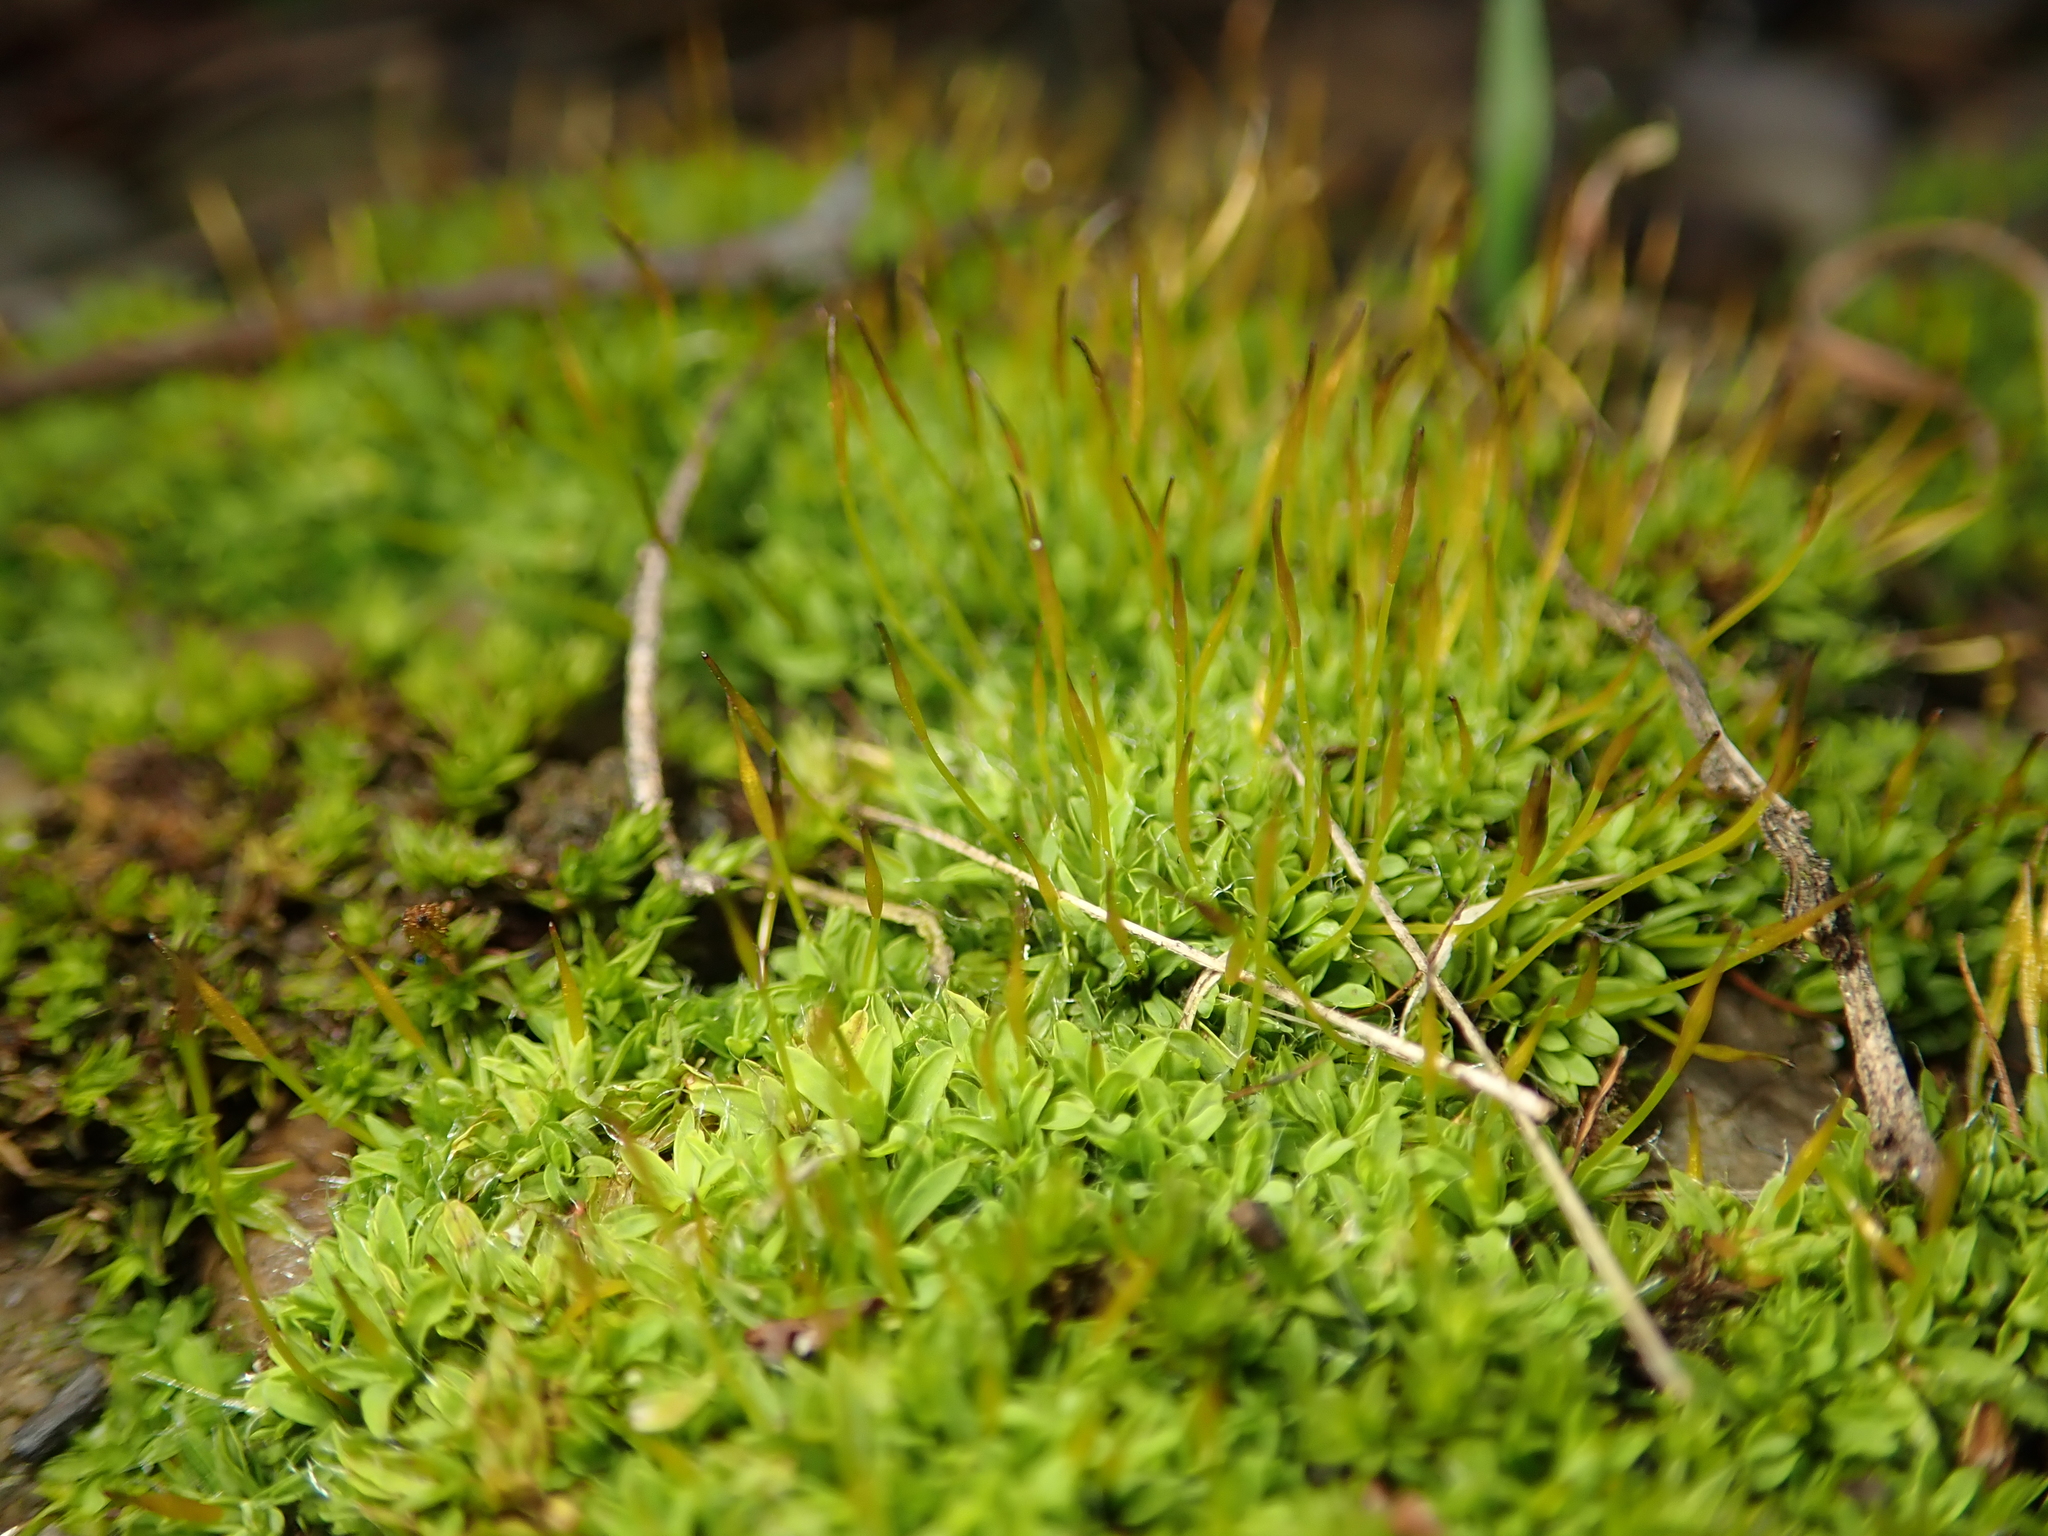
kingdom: Plantae
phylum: Bryophyta
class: Bryopsida
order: Pottiales
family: Pottiaceae
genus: Tortula
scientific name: Tortula muralis
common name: Wall screw-moss
